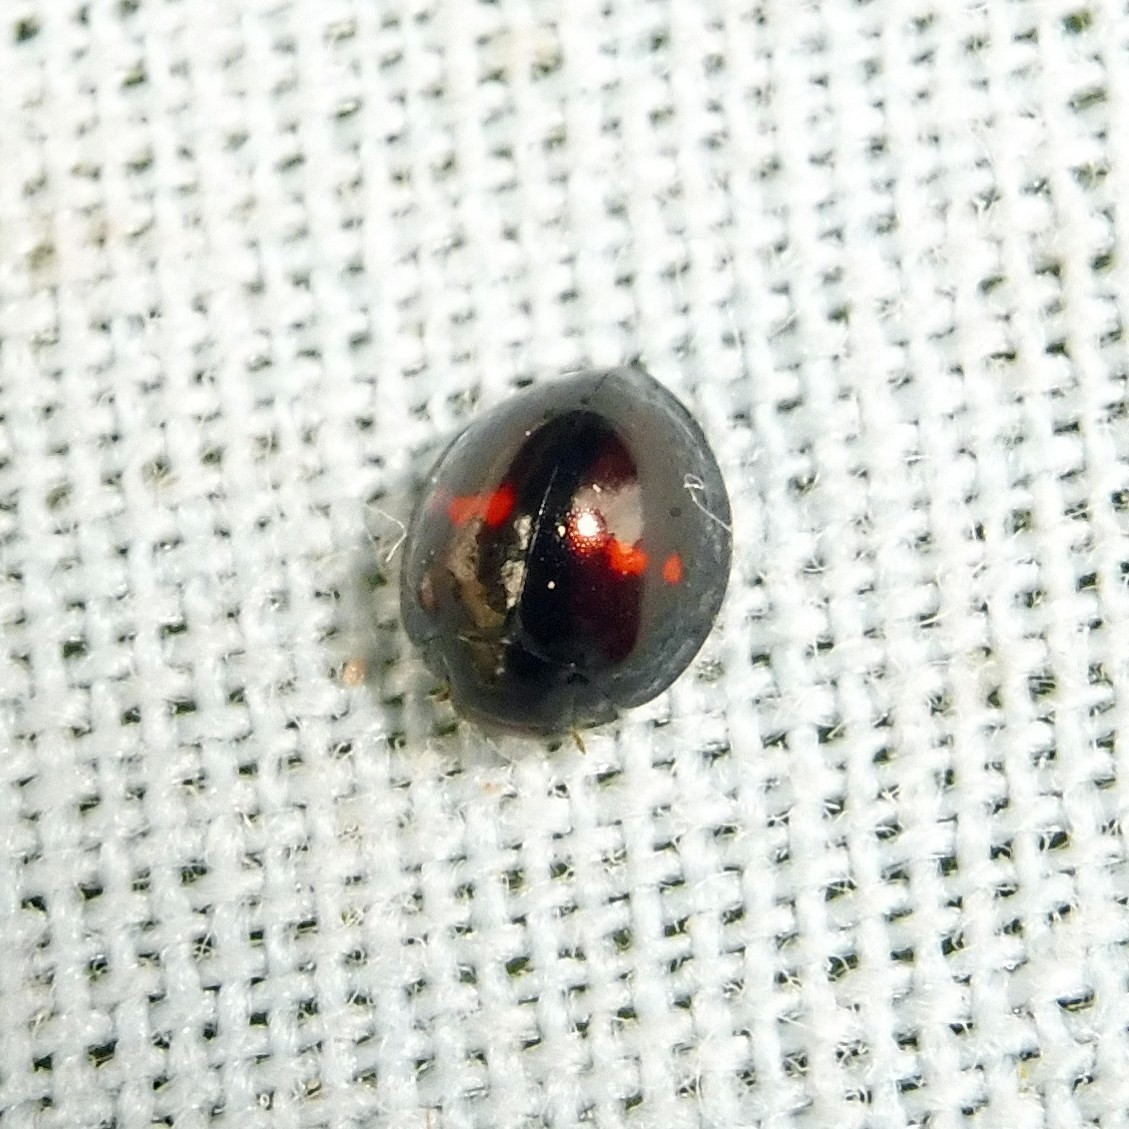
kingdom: Animalia
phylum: Arthropoda
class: Insecta
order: Coleoptera
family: Coccinellidae
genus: Chilocorus
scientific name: Chilocorus bipustulatus
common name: Heather ladybird
